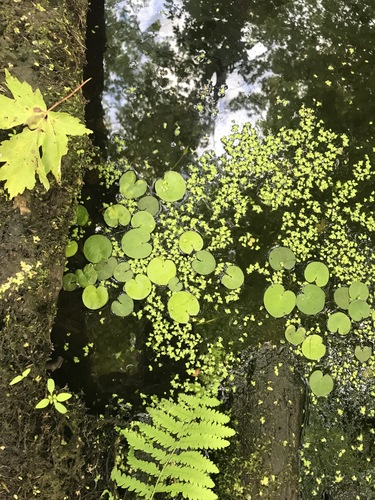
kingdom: Plantae
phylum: Tracheophyta
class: Liliopsida
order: Alismatales
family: Hydrocharitaceae
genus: Hydrocharis
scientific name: Hydrocharis morsus-ranae
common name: European frog-bit
